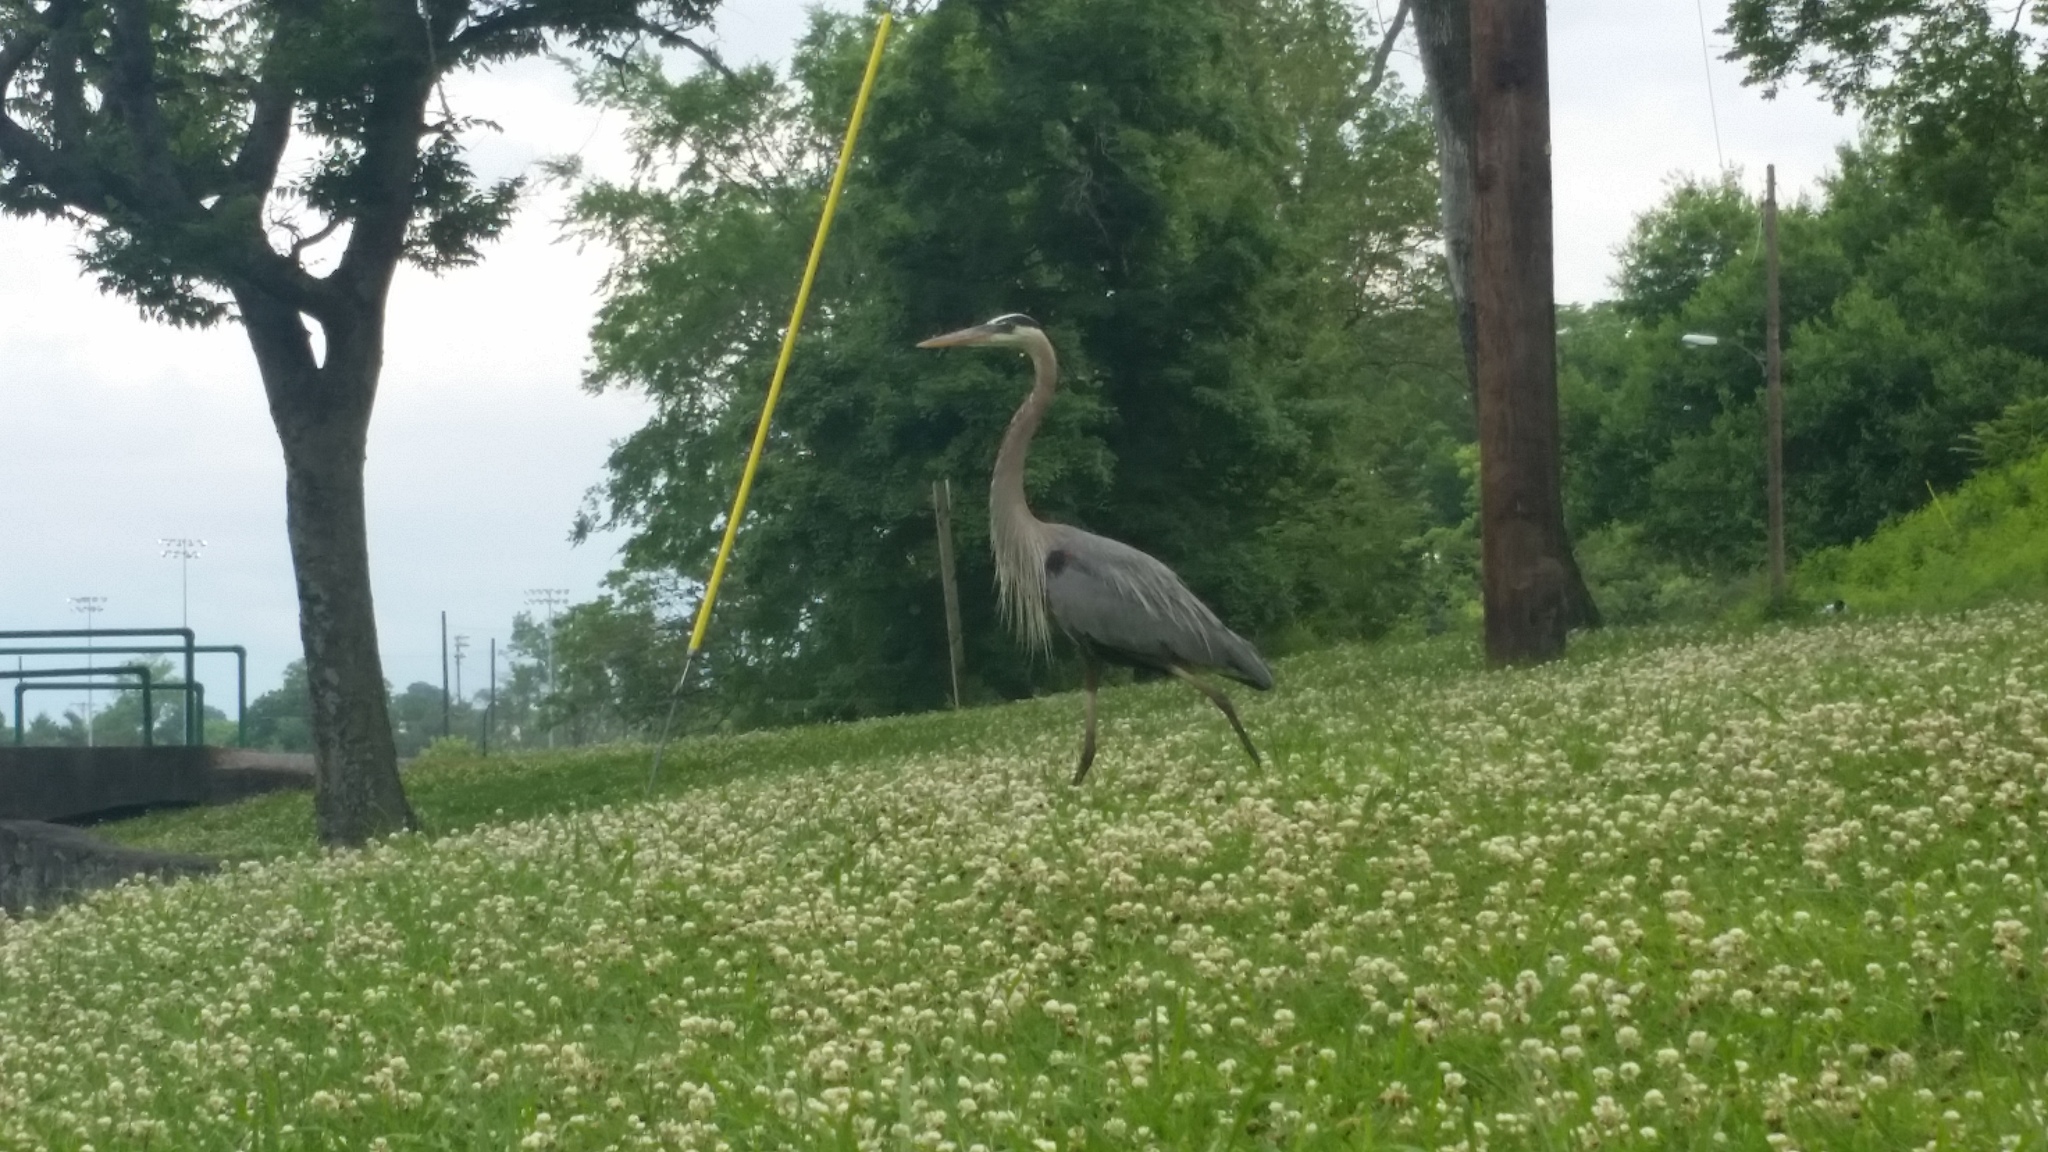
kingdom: Animalia
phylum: Chordata
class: Aves
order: Pelecaniformes
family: Ardeidae
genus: Ardea
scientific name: Ardea herodias
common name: Great blue heron
